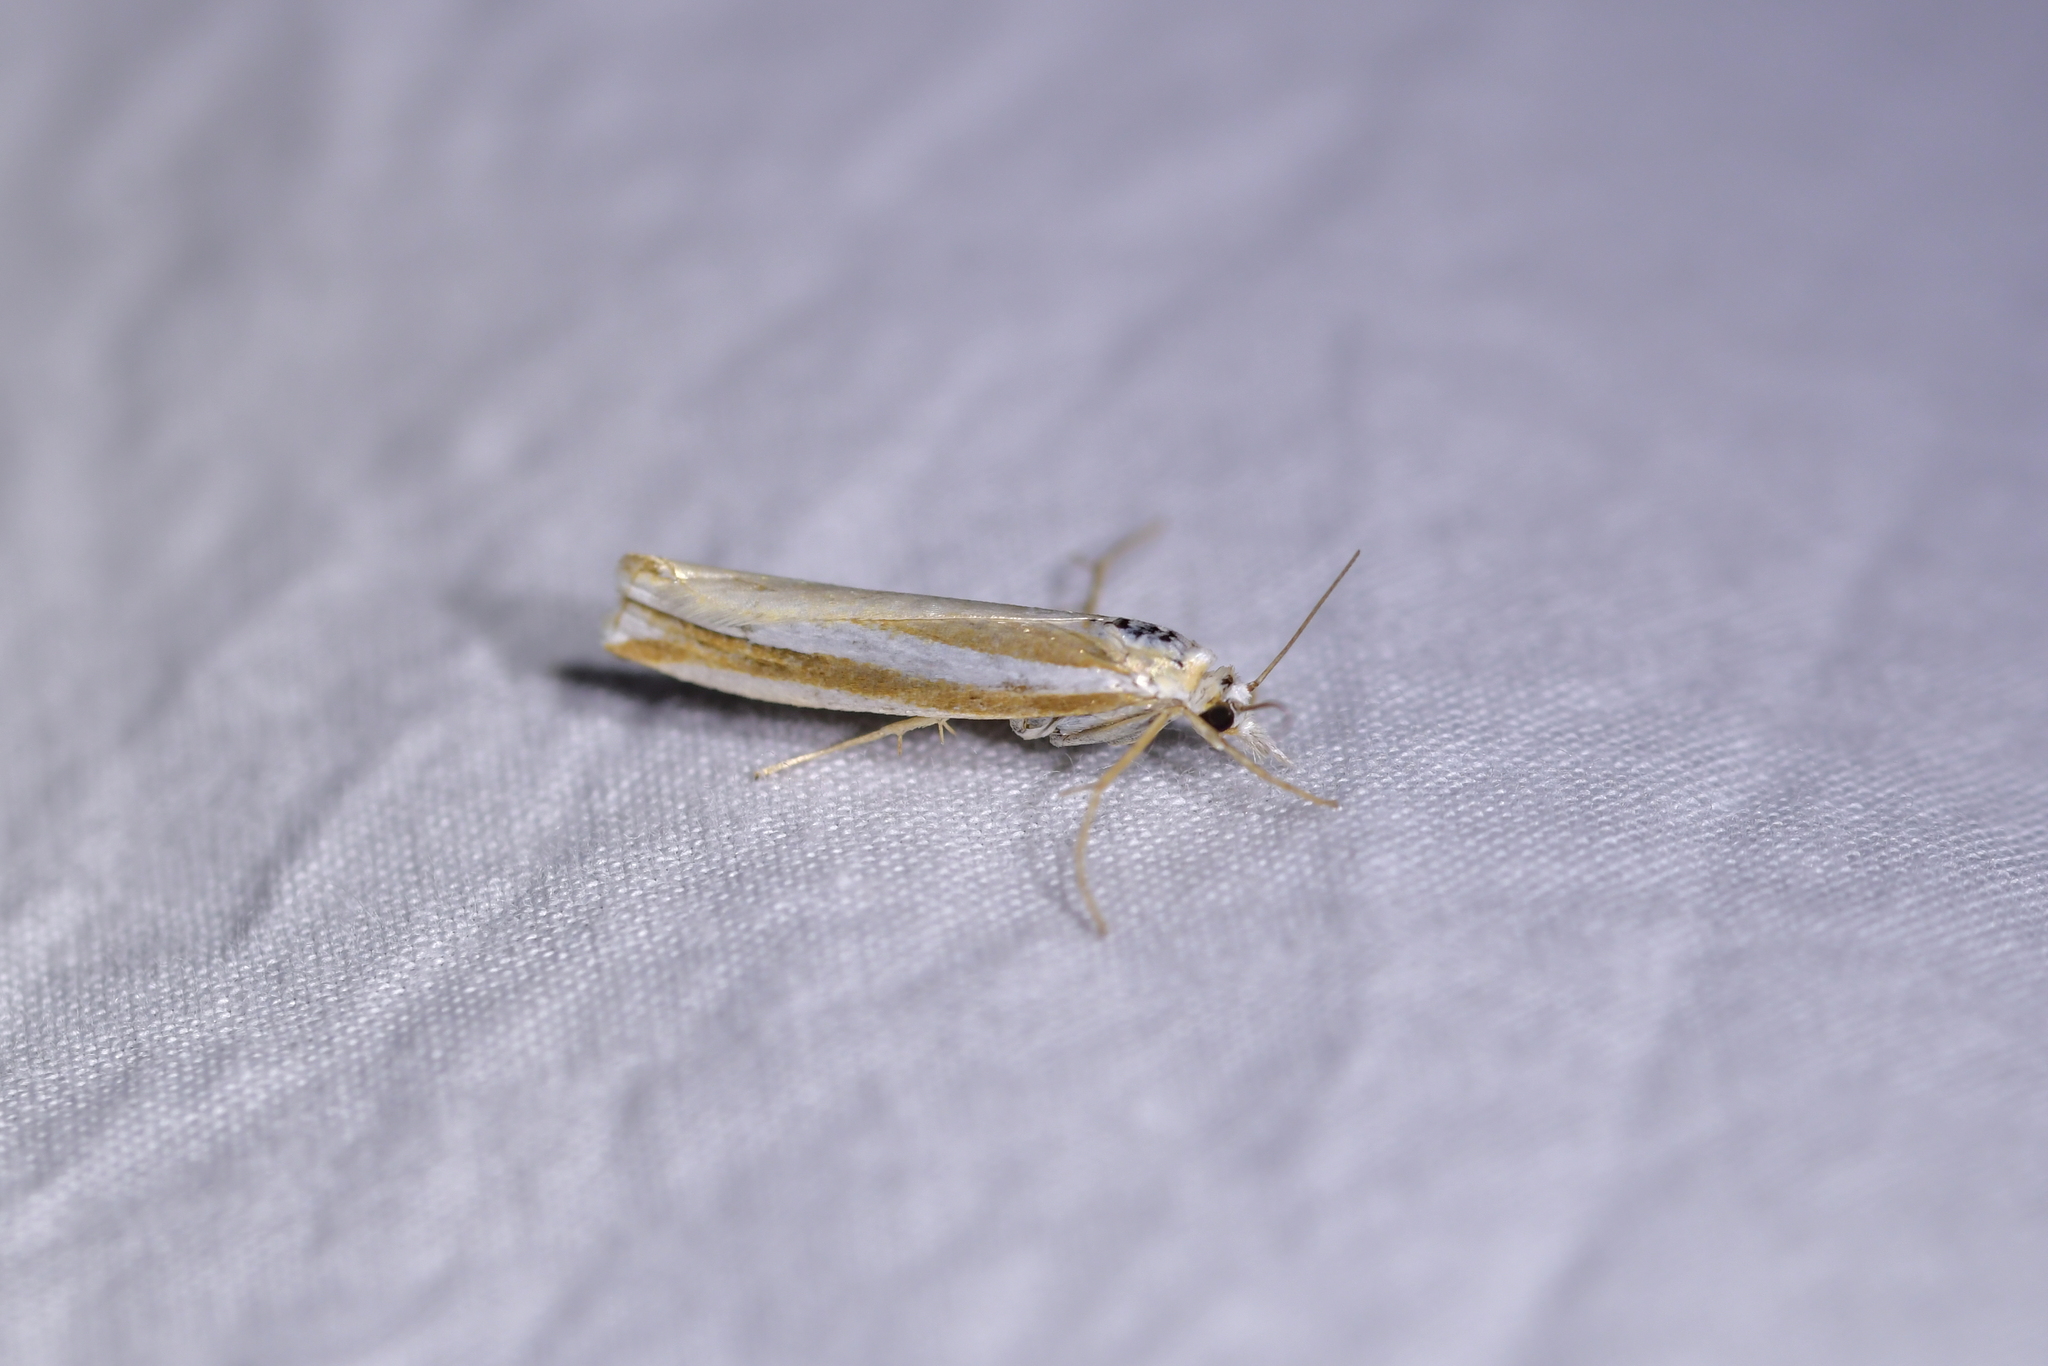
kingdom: Animalia
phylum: Arthropoda
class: Insecta
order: Lepidoptera
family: Crambidae
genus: Orocrambus
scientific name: Orocrambus apicellus
